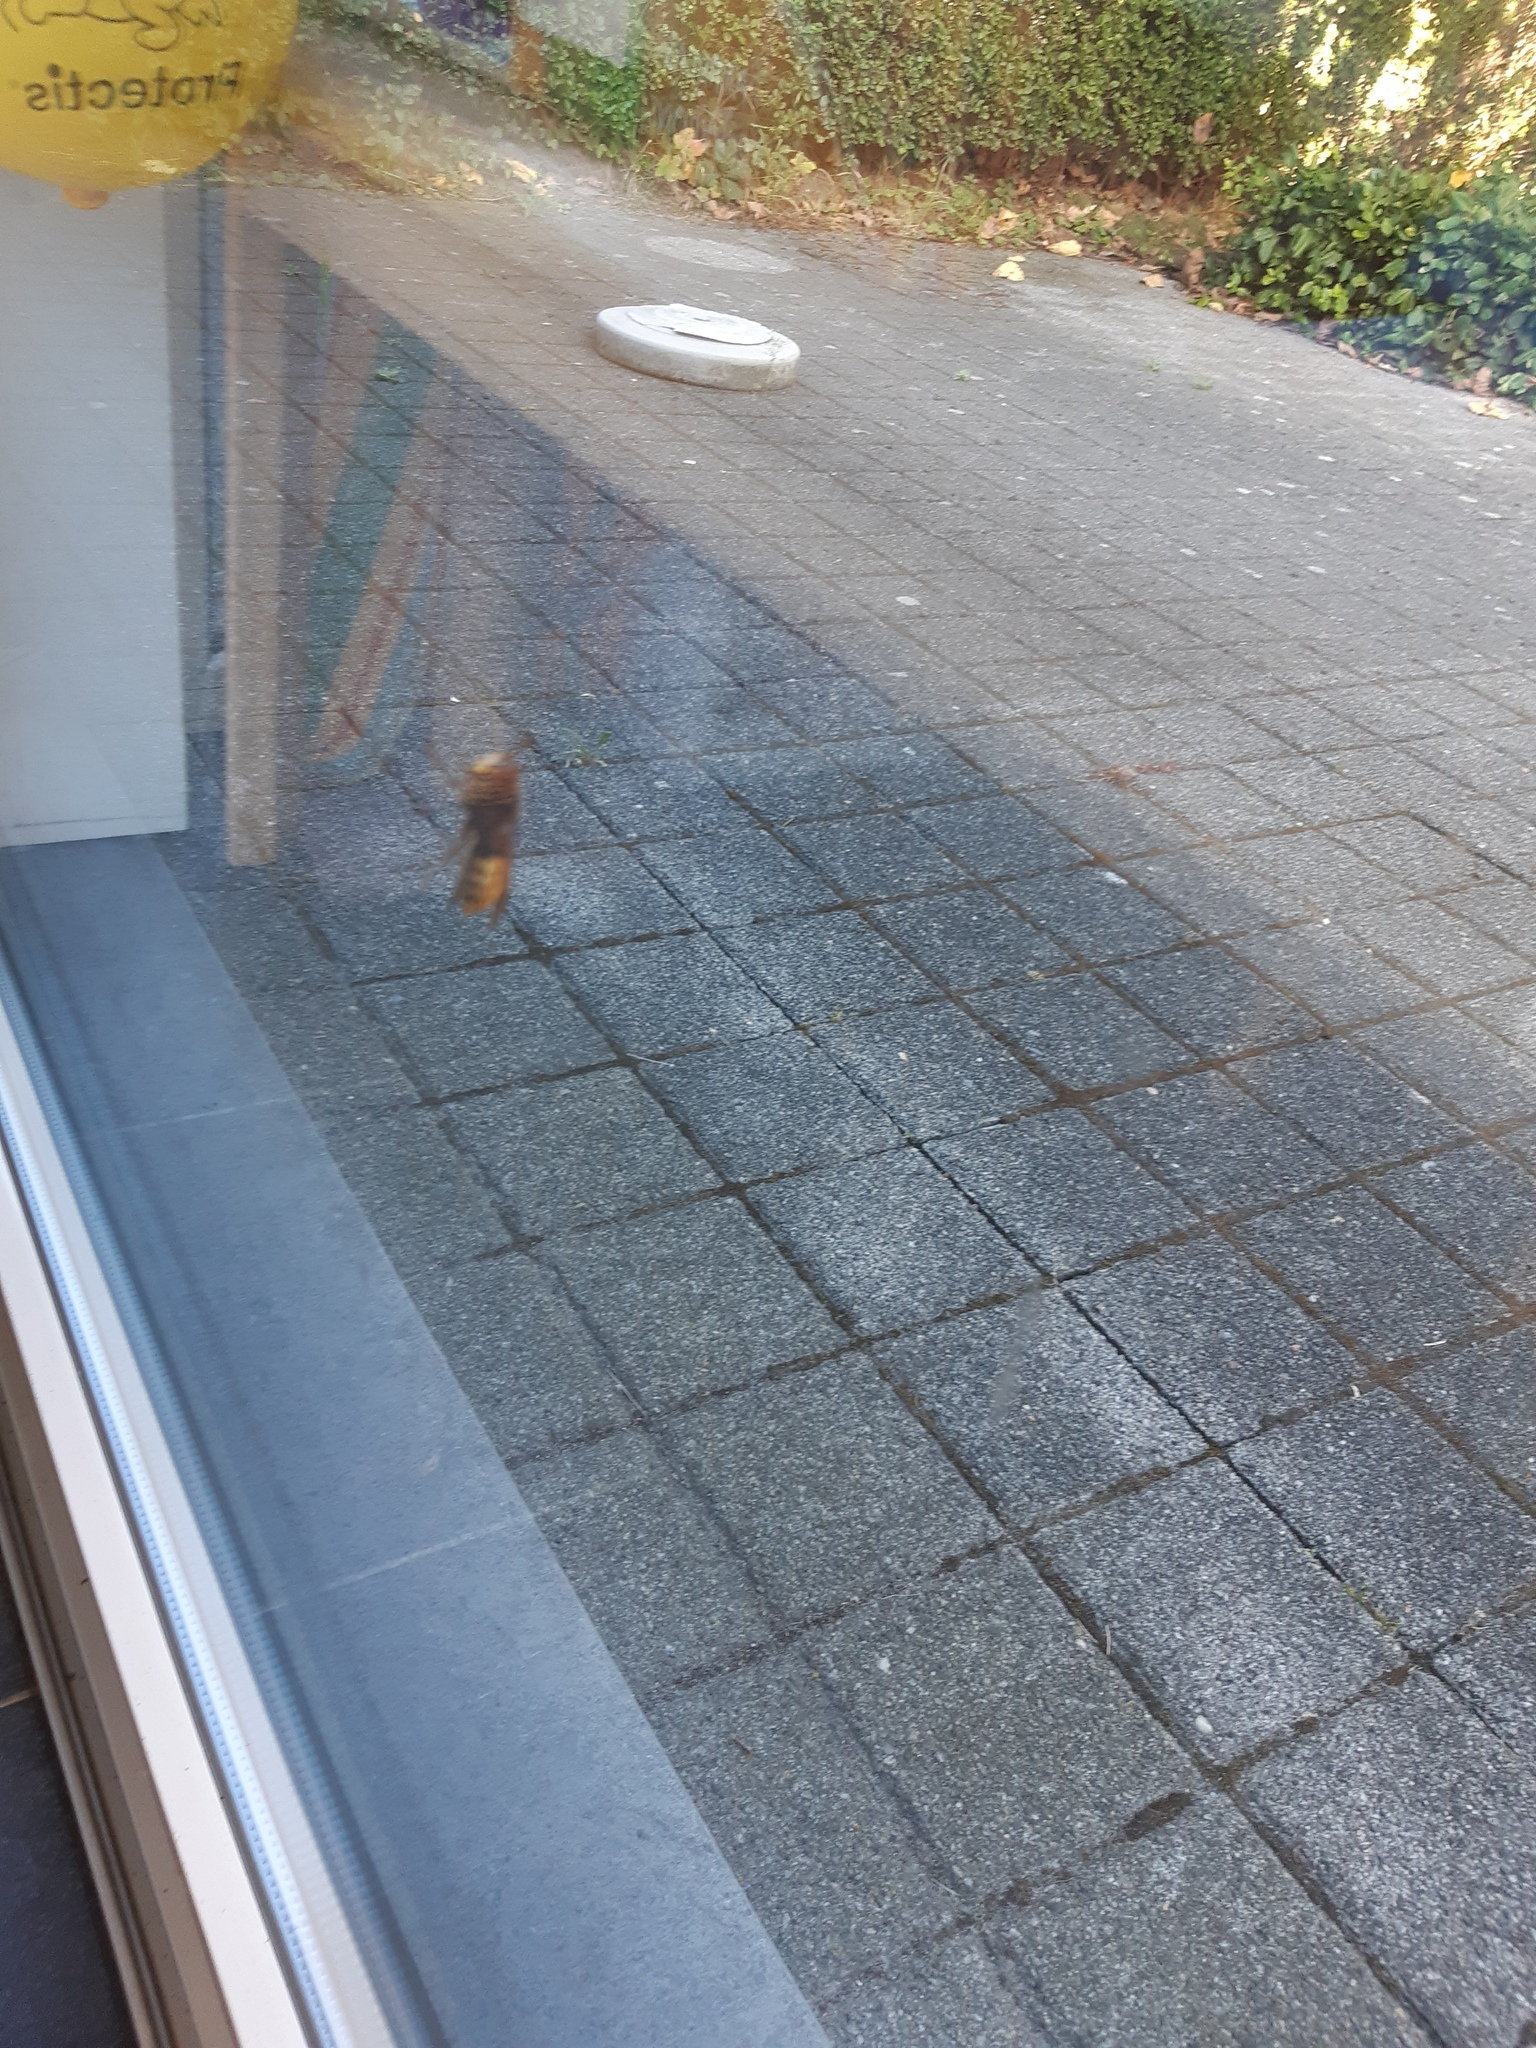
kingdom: Animalia
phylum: Arthropoda
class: Insecta
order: Hymenoptera
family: Vespidae
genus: Vespa
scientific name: Vespa crabro
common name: Hornet
